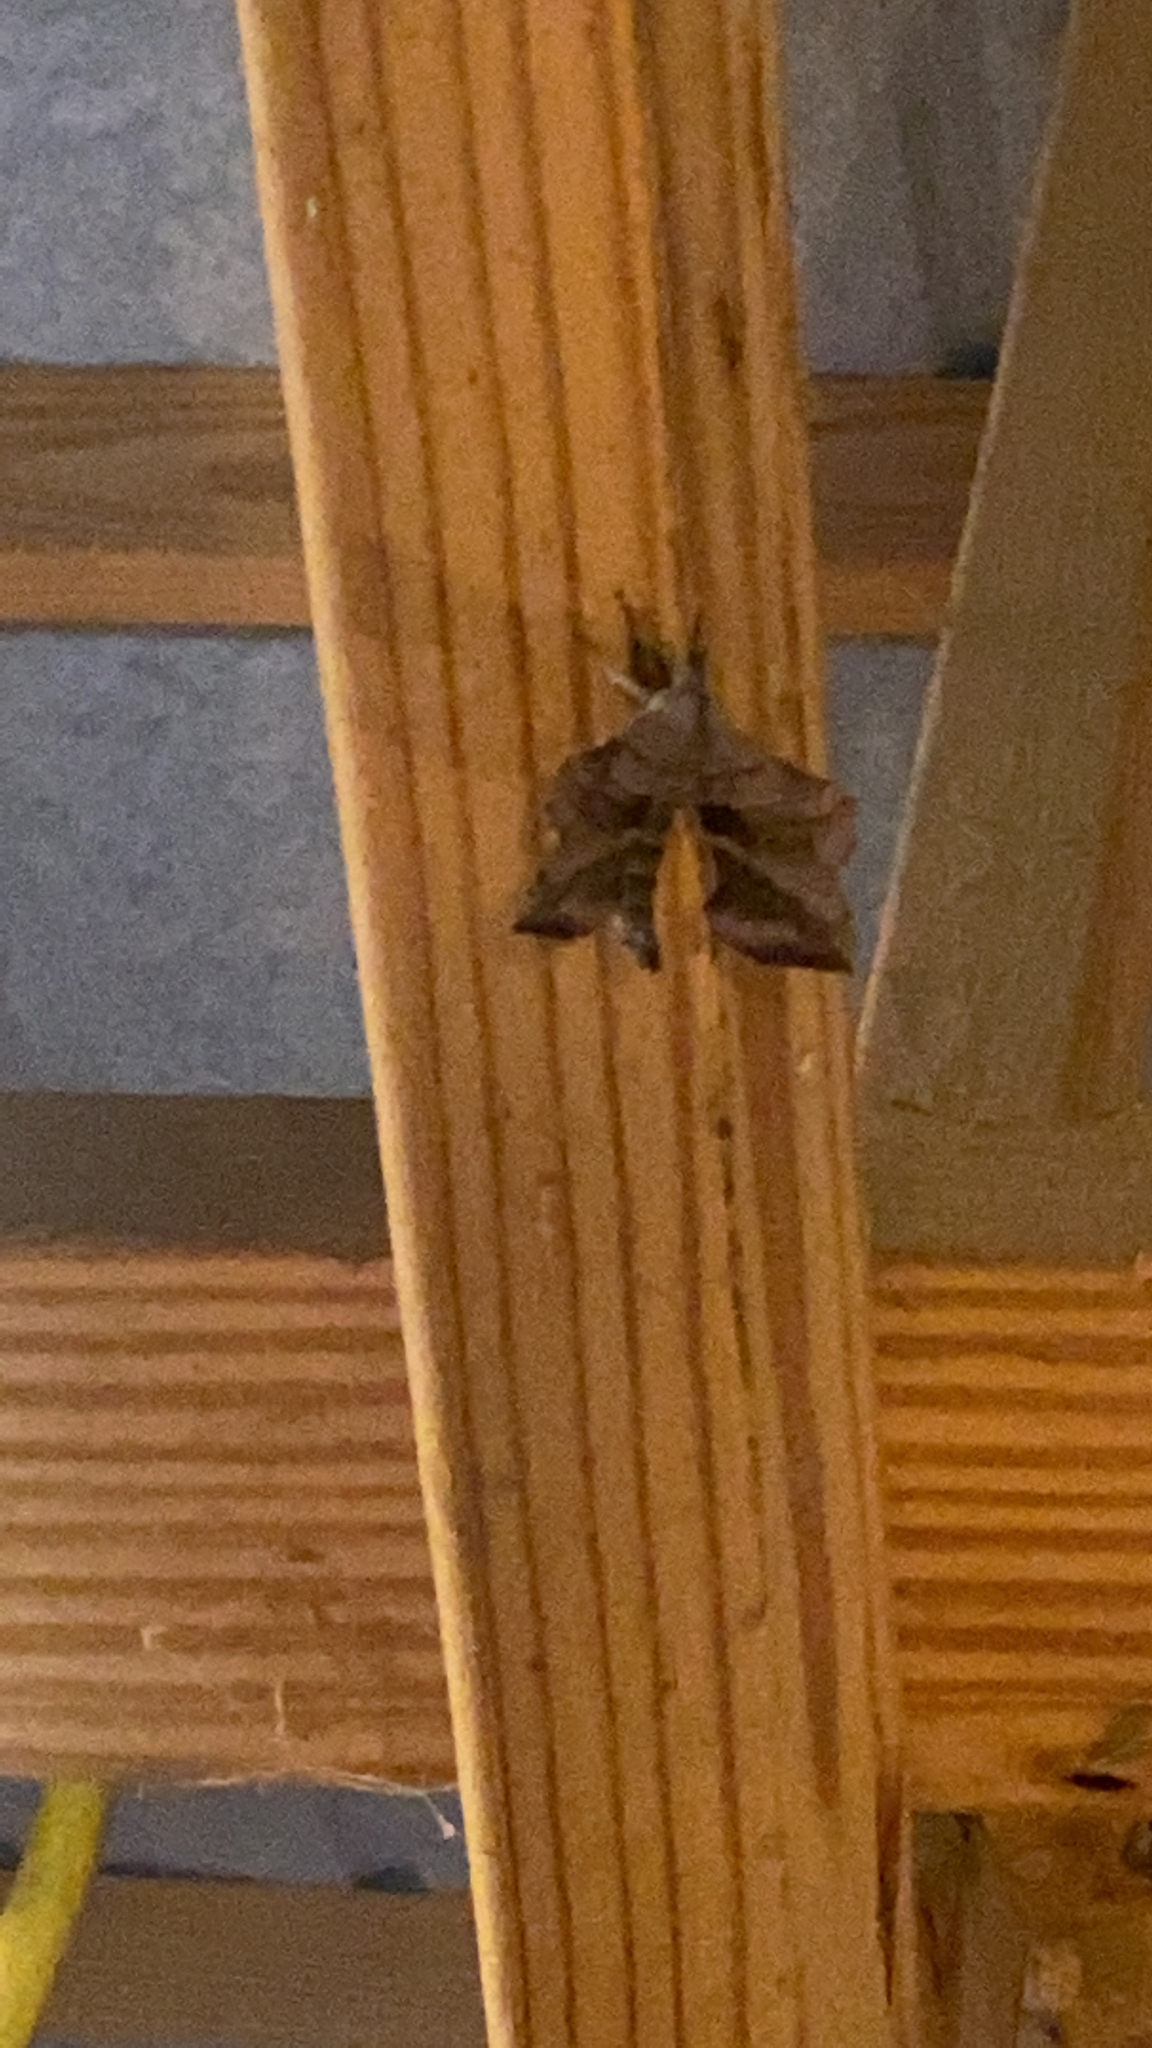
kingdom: Animalia
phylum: Arthropoda
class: Insecta
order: Lepidoptera
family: Sphingidae
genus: Amorpha
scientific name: Amorpha juglandis
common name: Walnut sphinx
